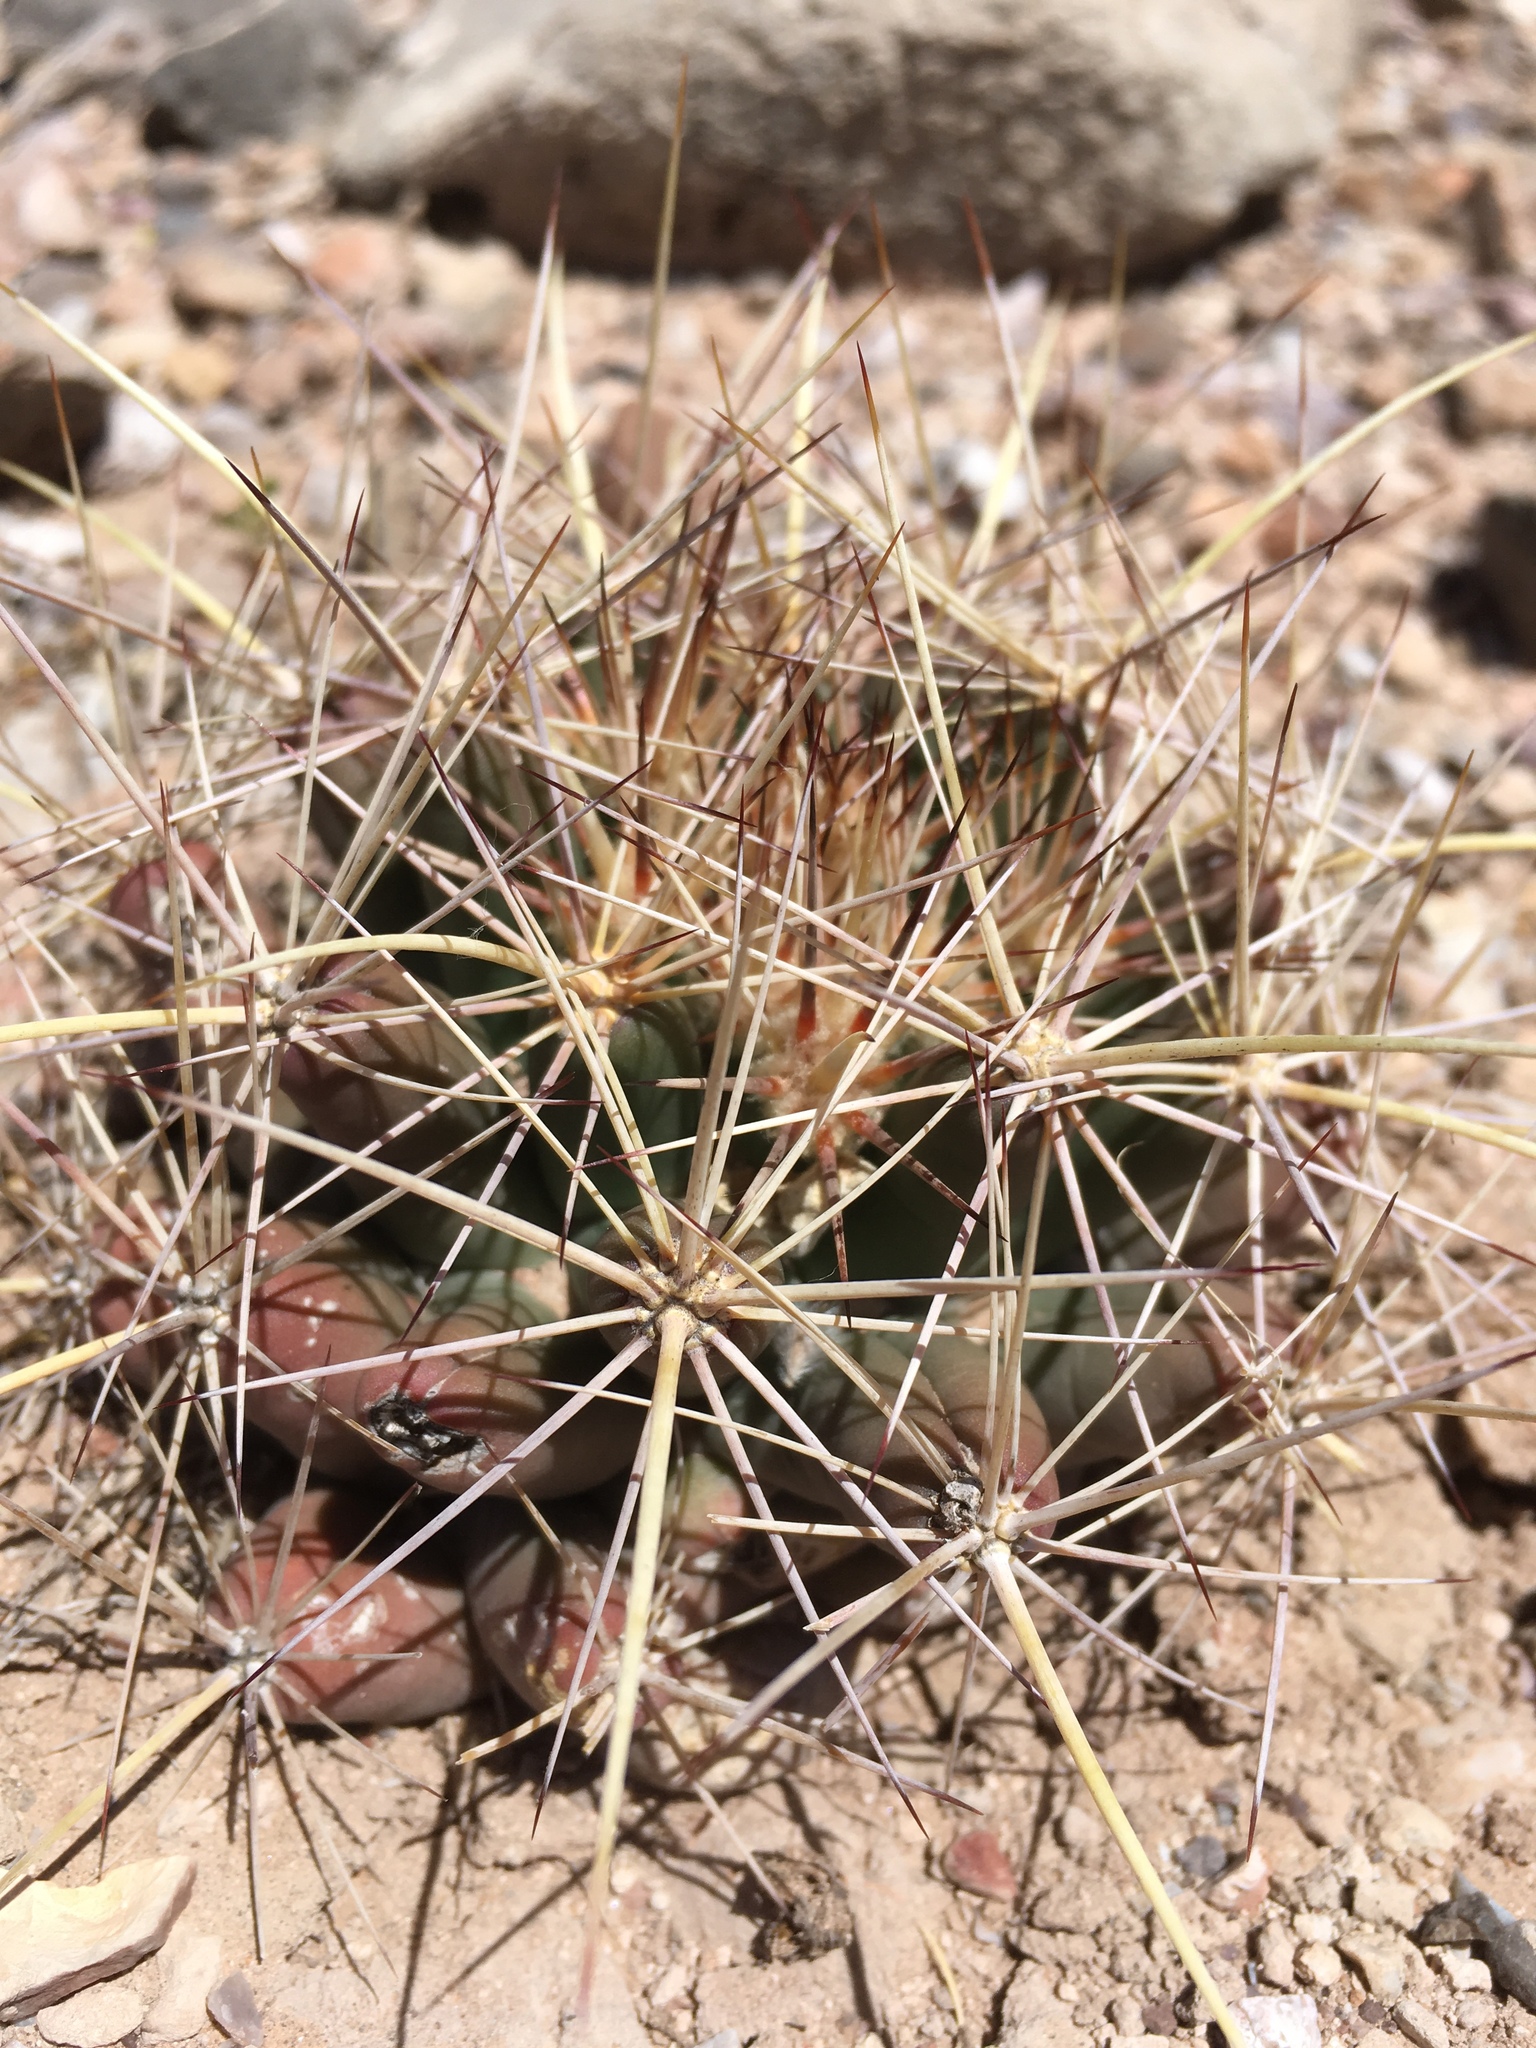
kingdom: Plantae
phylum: Tracheophyta
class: Magnoliopsida
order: Caryophyllales
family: Cactaceae
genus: Coryphantha
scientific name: Coryphantha robustispina
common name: Pima pineapple cactus
